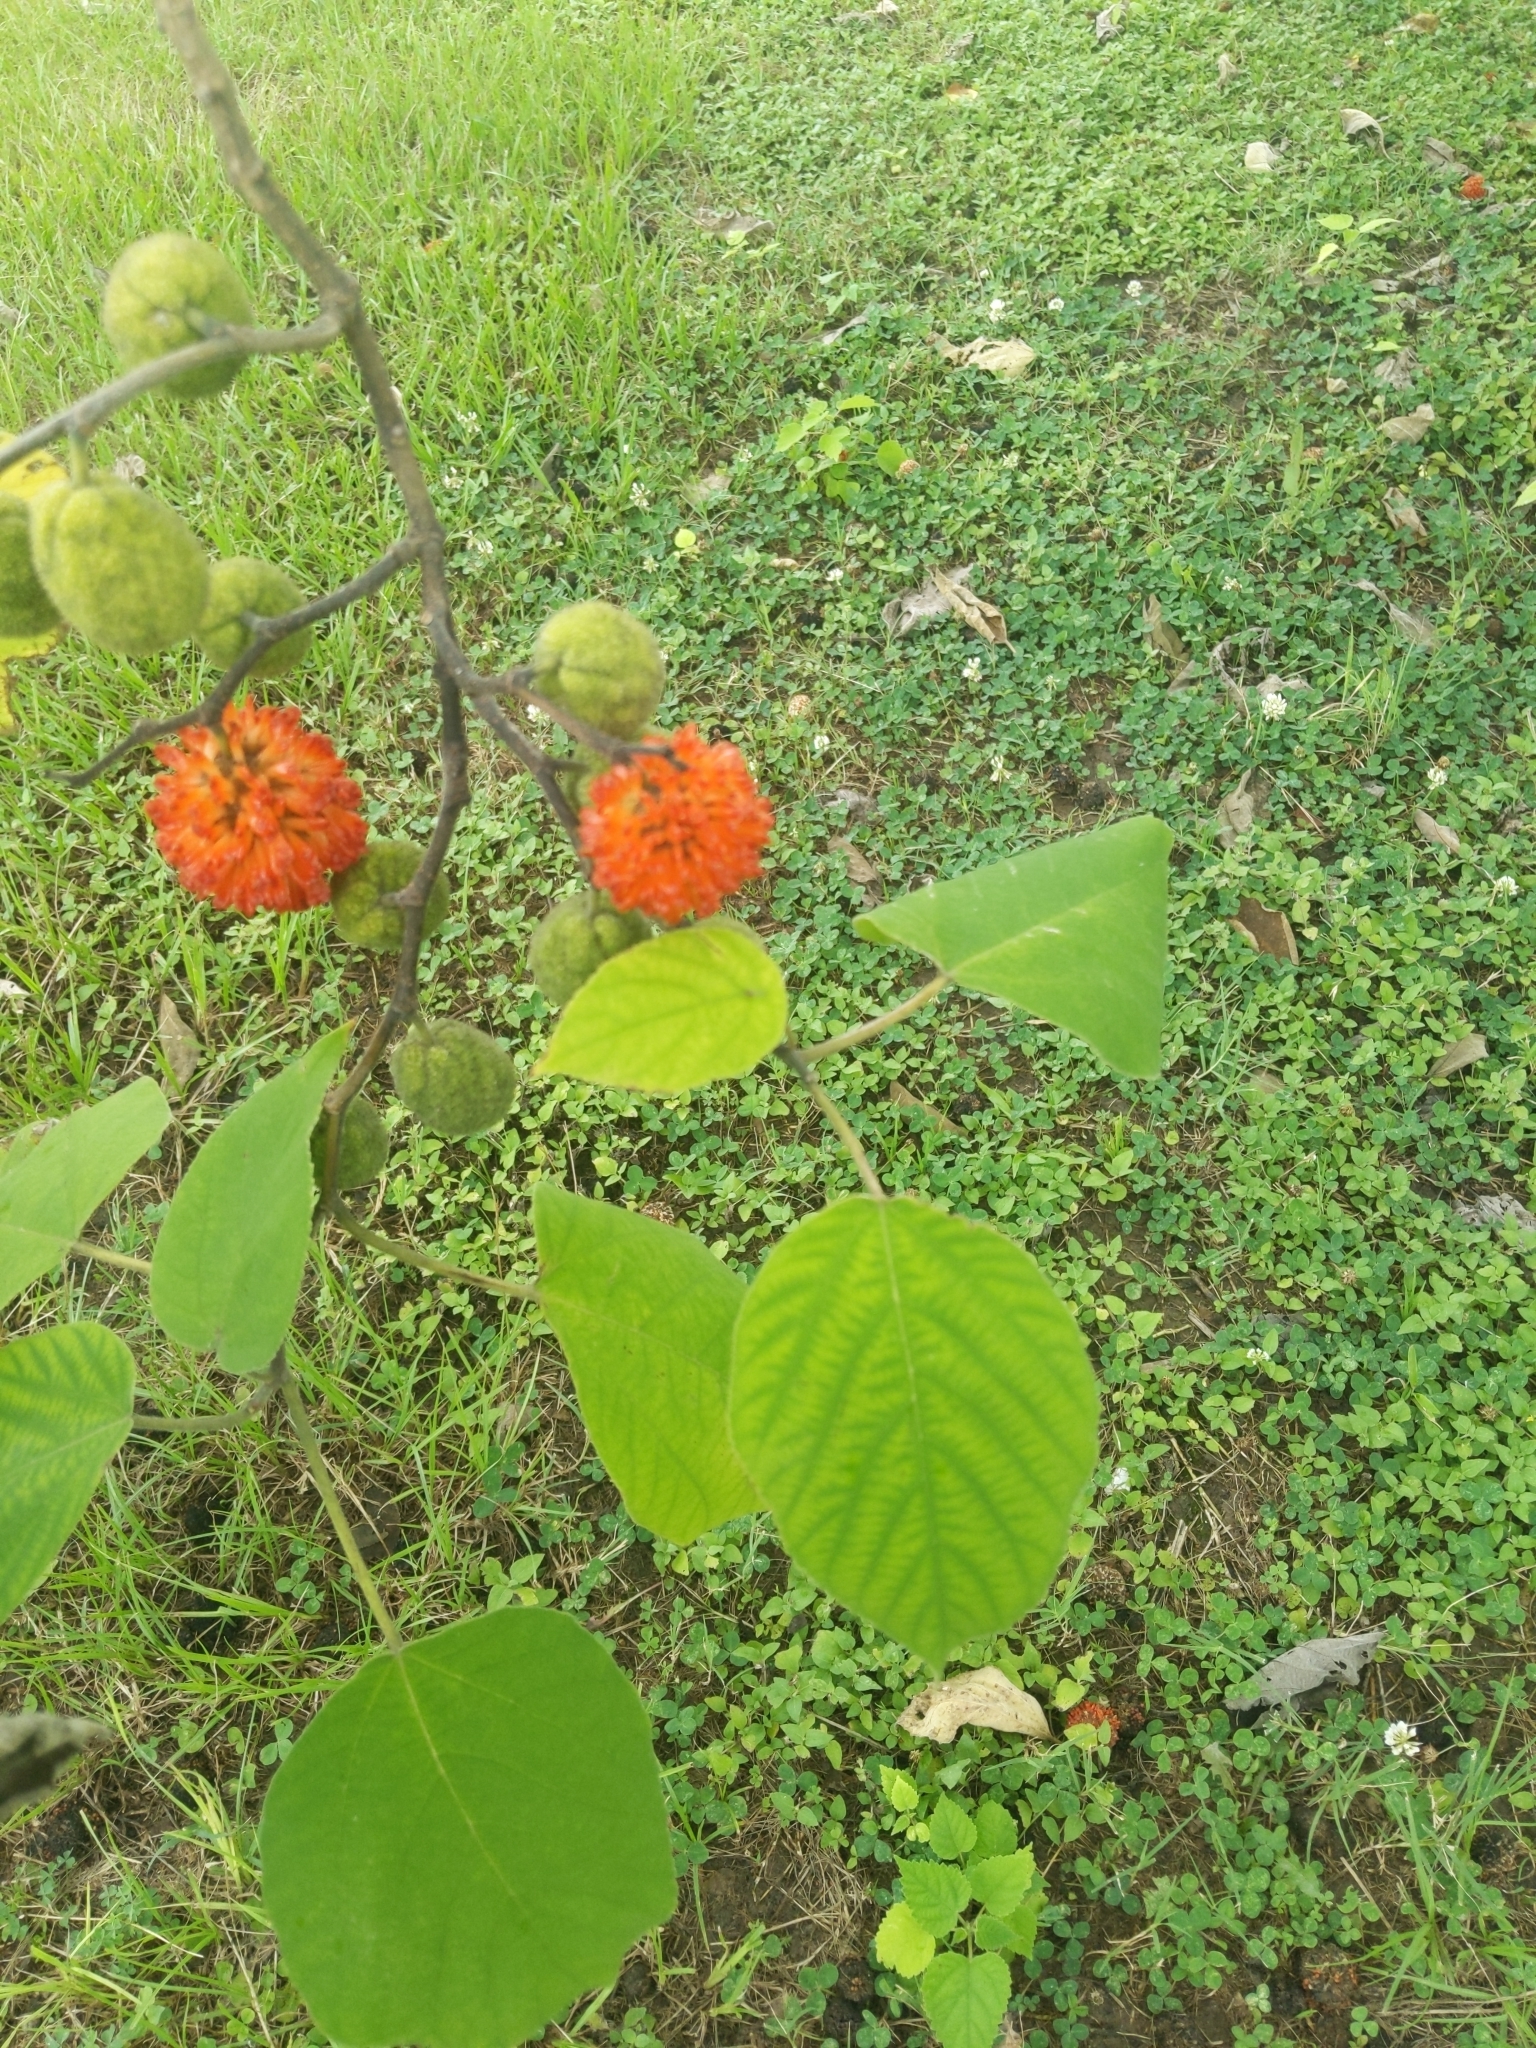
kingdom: Plantae
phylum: Tracheophyta
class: Magnoliopsida
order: Rosales
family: Moraceae
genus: Broussonetia
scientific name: Broussonetia papyrifera
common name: Paper mulberry
